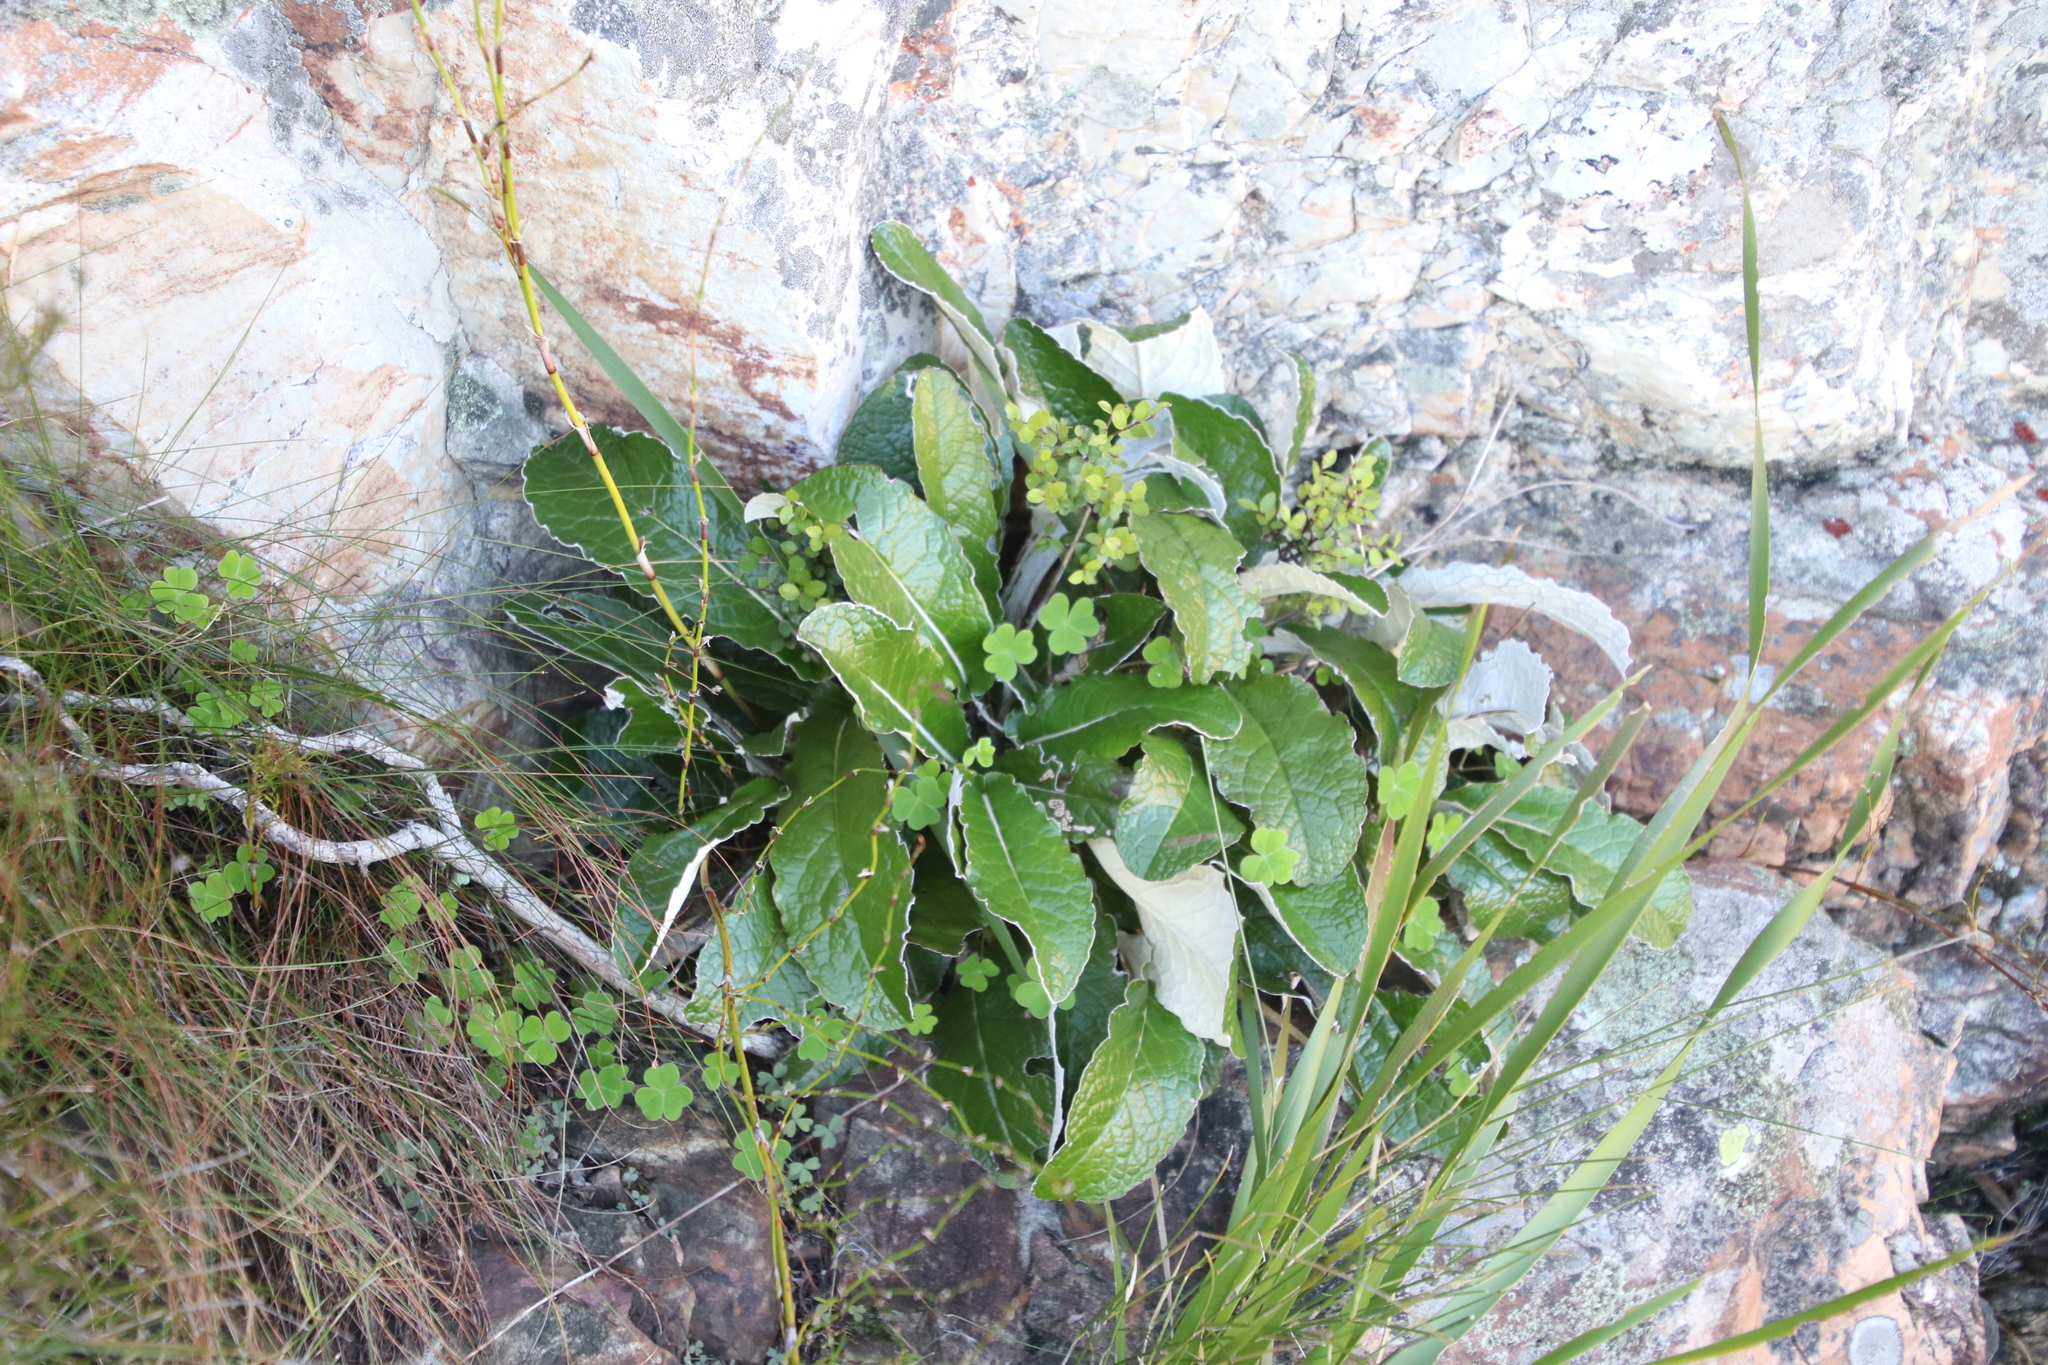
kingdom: Plantae
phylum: Tracheophyta
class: Magnoliopsida
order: Asterales
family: Asteraceae
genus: Gerbera
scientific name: Gerbera tomentosa
